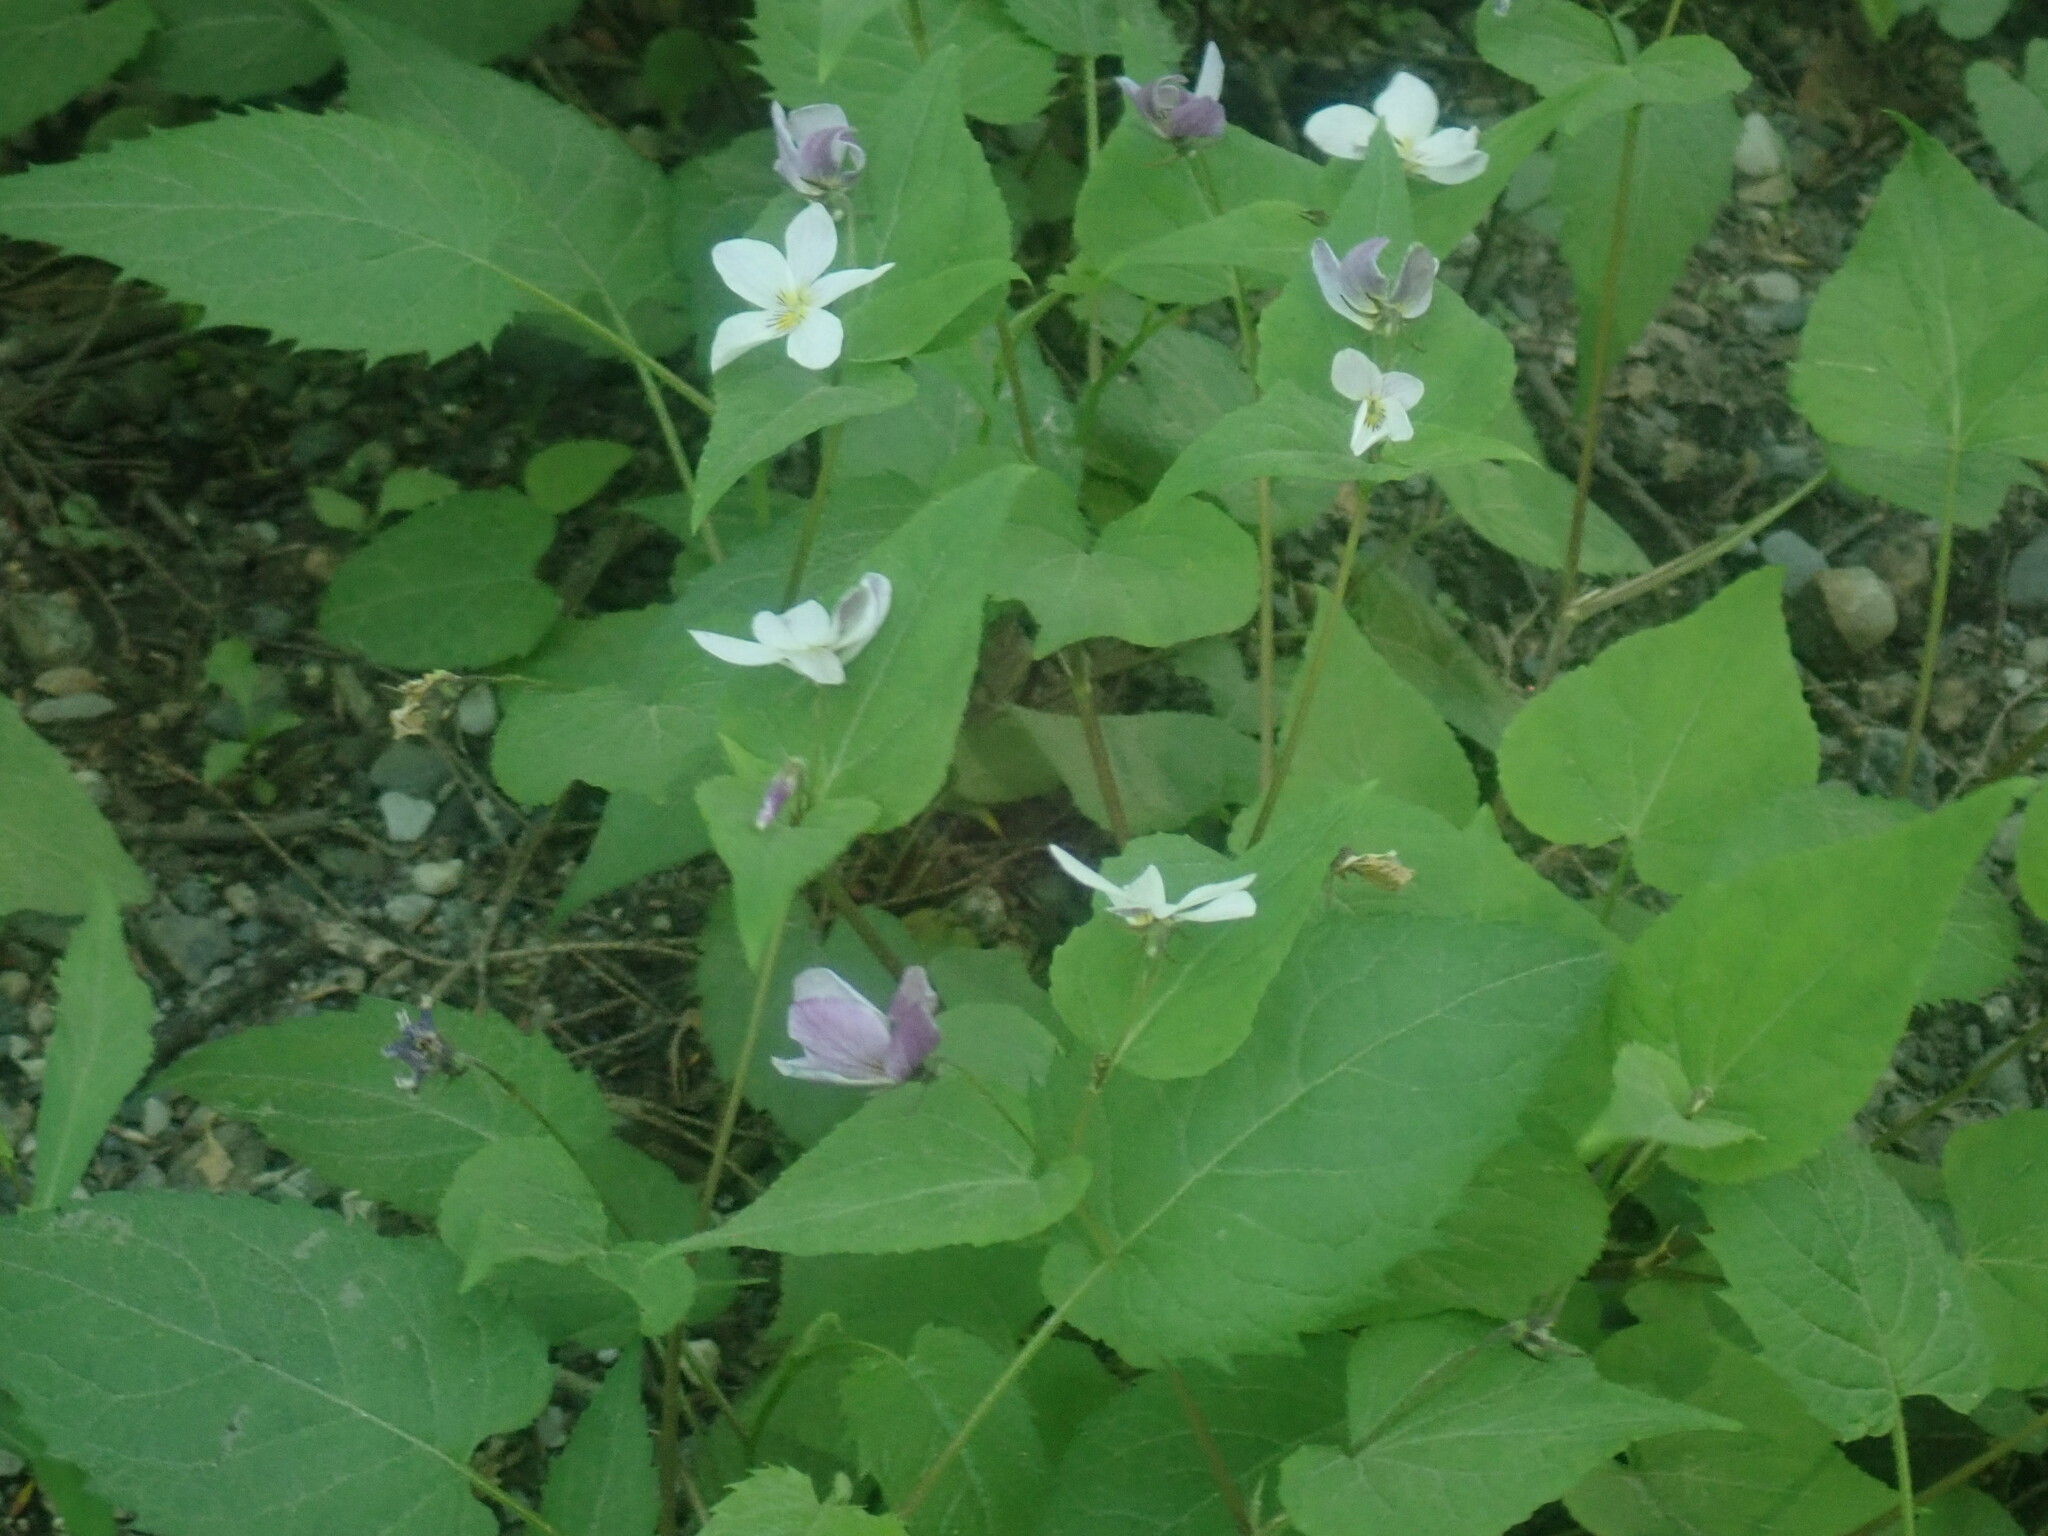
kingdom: Plantae
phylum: Tracheophyta
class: Magnoliopsida
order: Malpighiales
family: Violaceae
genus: Viola
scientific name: Viola canadensis
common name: Canada violet
